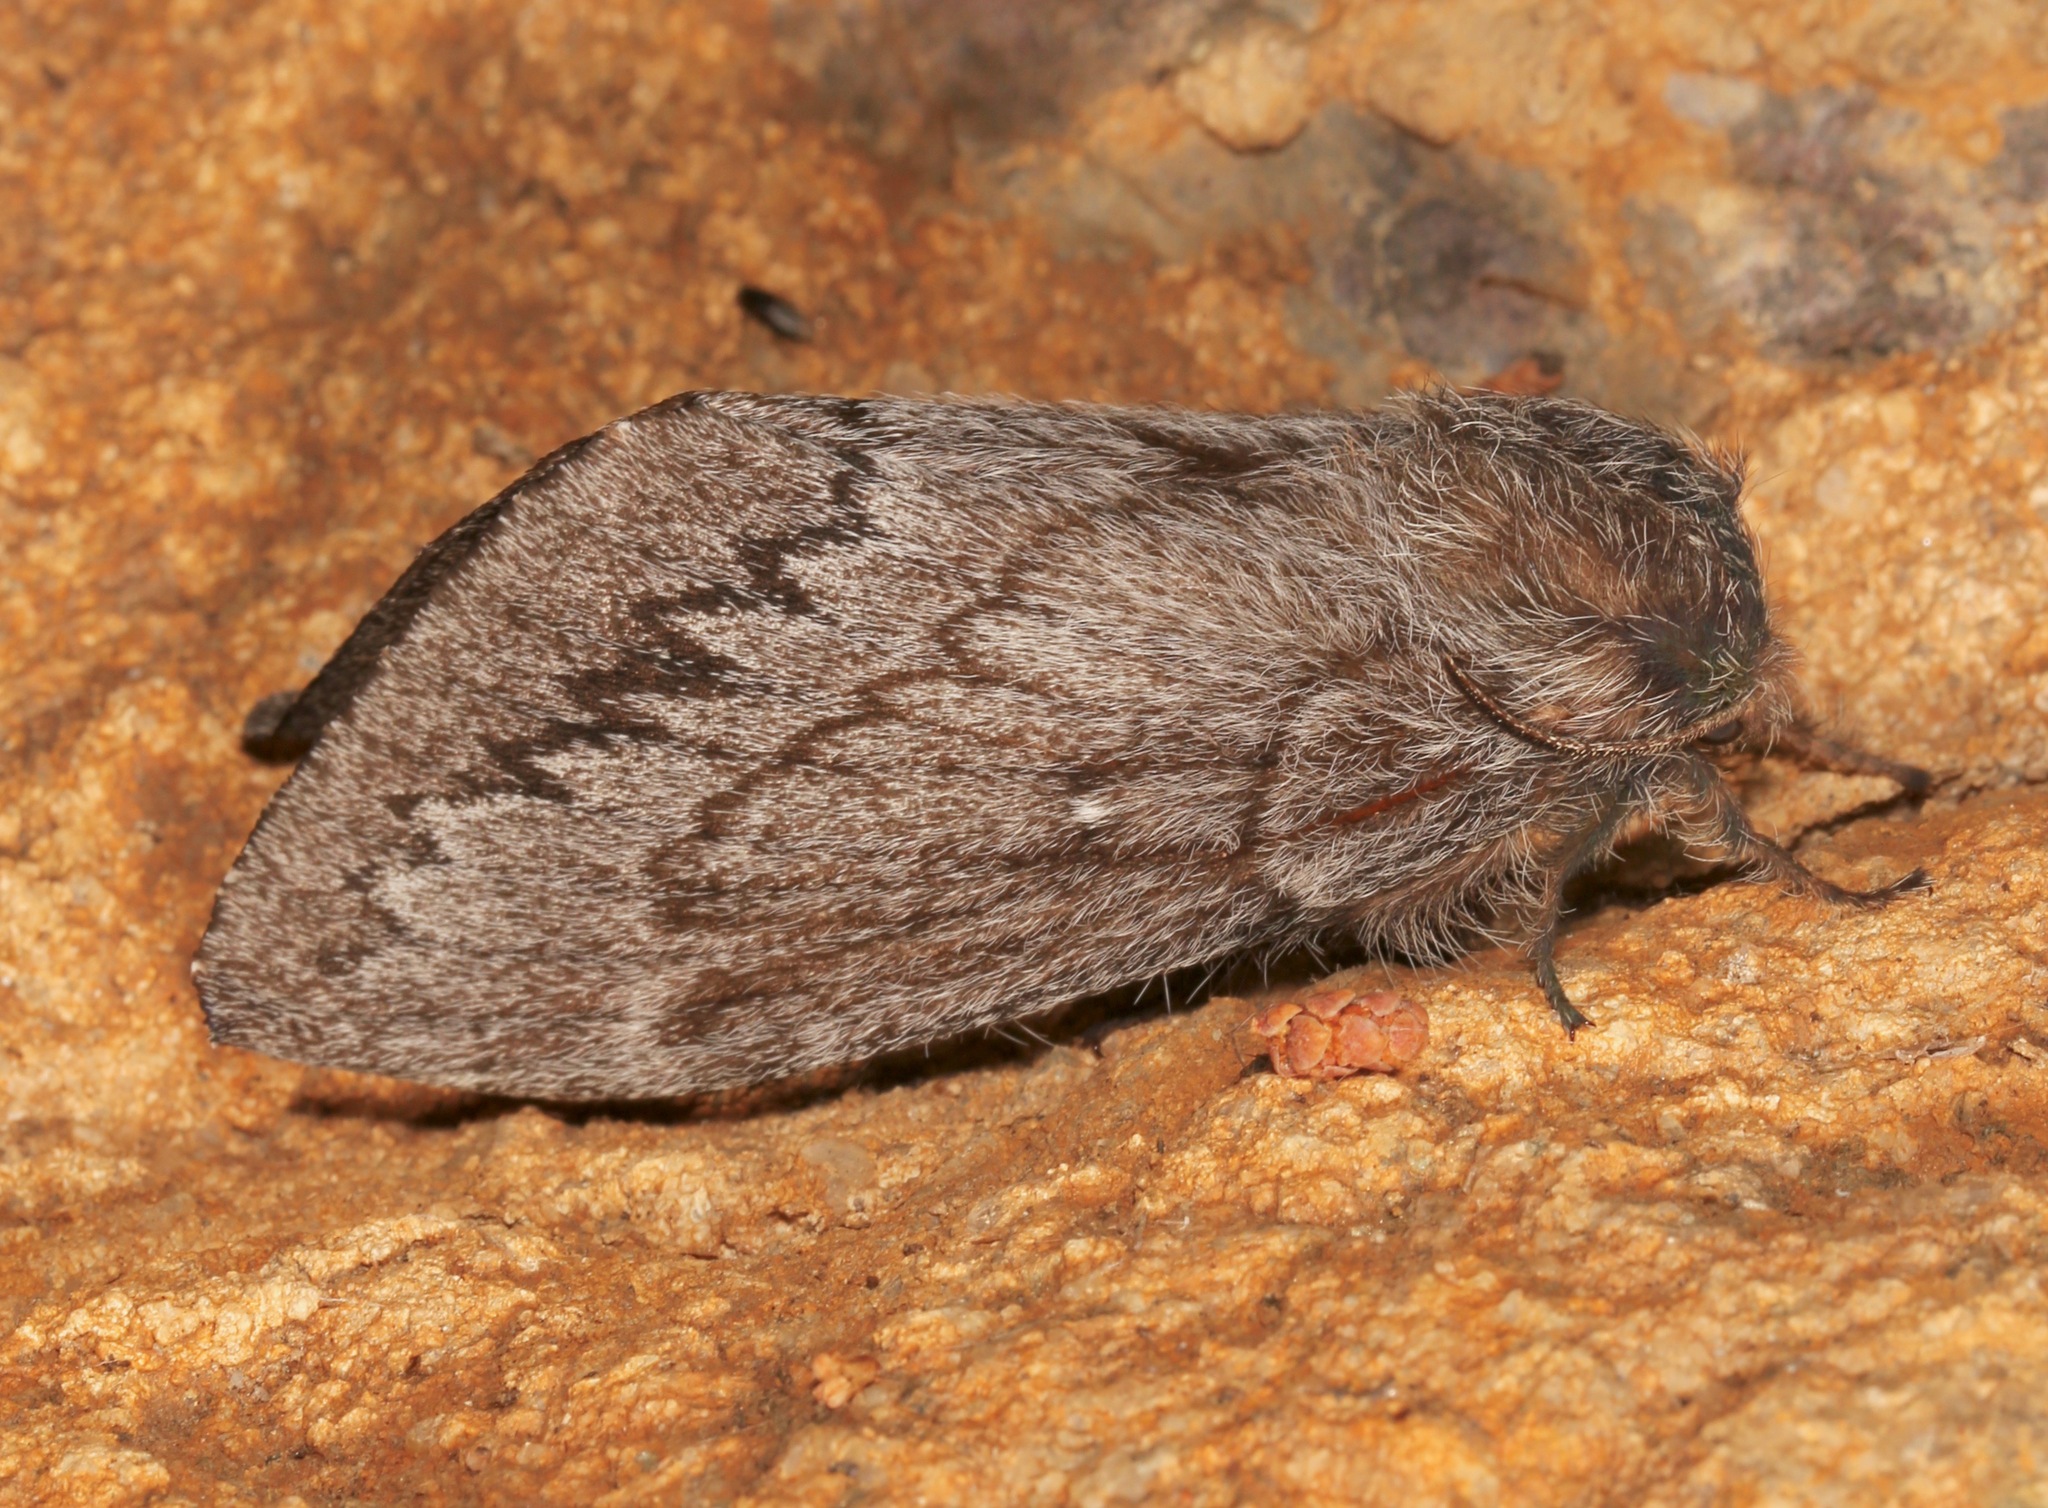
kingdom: Animalia
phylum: Arthropoda
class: Insecta
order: Lepidoptera
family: Lasiocampidae
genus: Gloveria
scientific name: Gloveria arizonensis
